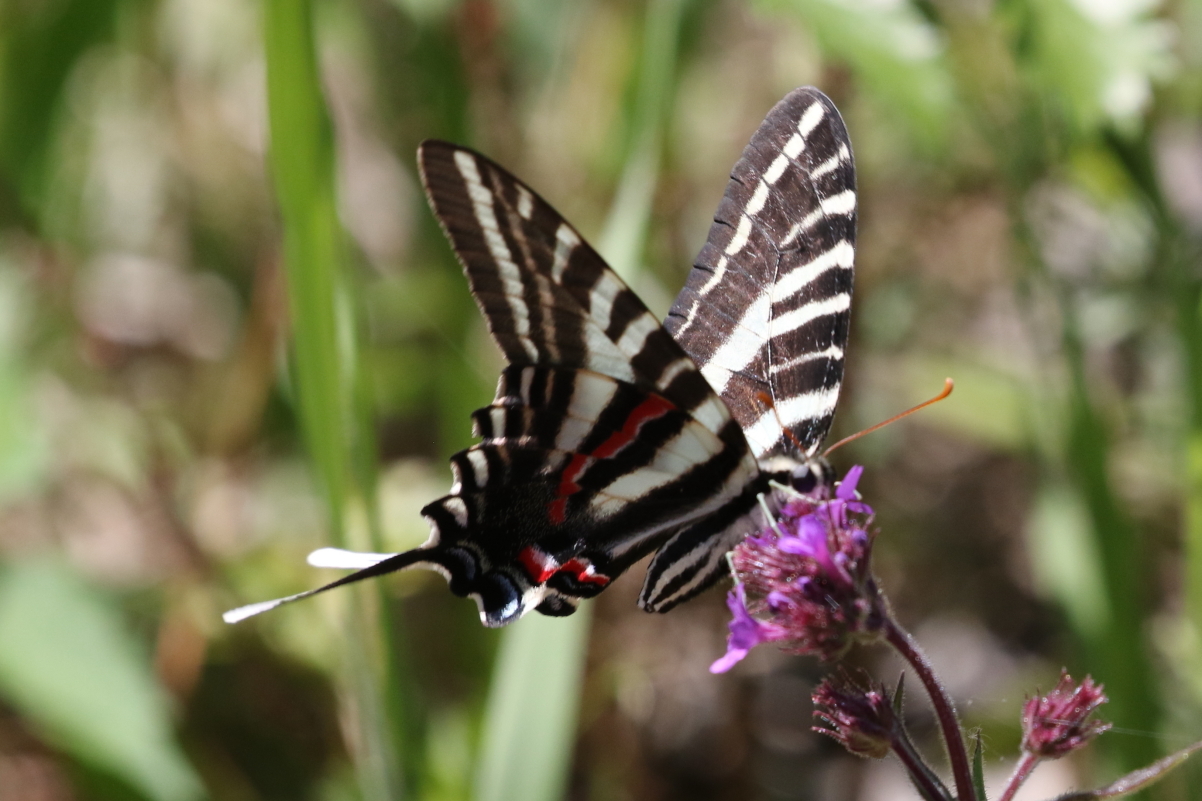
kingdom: Animalia
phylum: Arthropoda
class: Insecta
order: Lepidoptera
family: Papilionidae
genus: Protographium
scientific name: Protographium marcellus
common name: Zebra swallowtail
